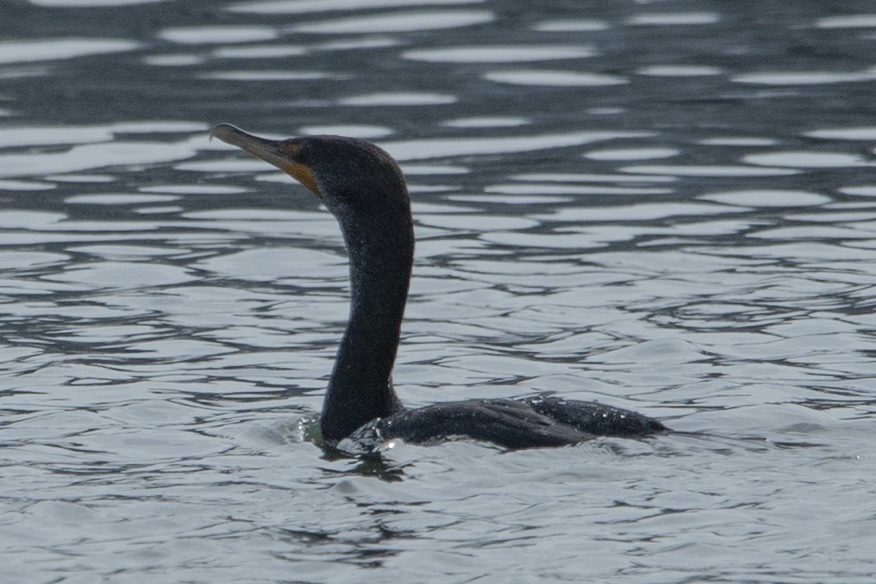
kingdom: Animalia
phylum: Chordata
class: Aves
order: Suliformes
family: Phalacrocoracidae
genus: Phalacrocorax
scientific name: Phalacrocorax auritus
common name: Double-crested cormorant
